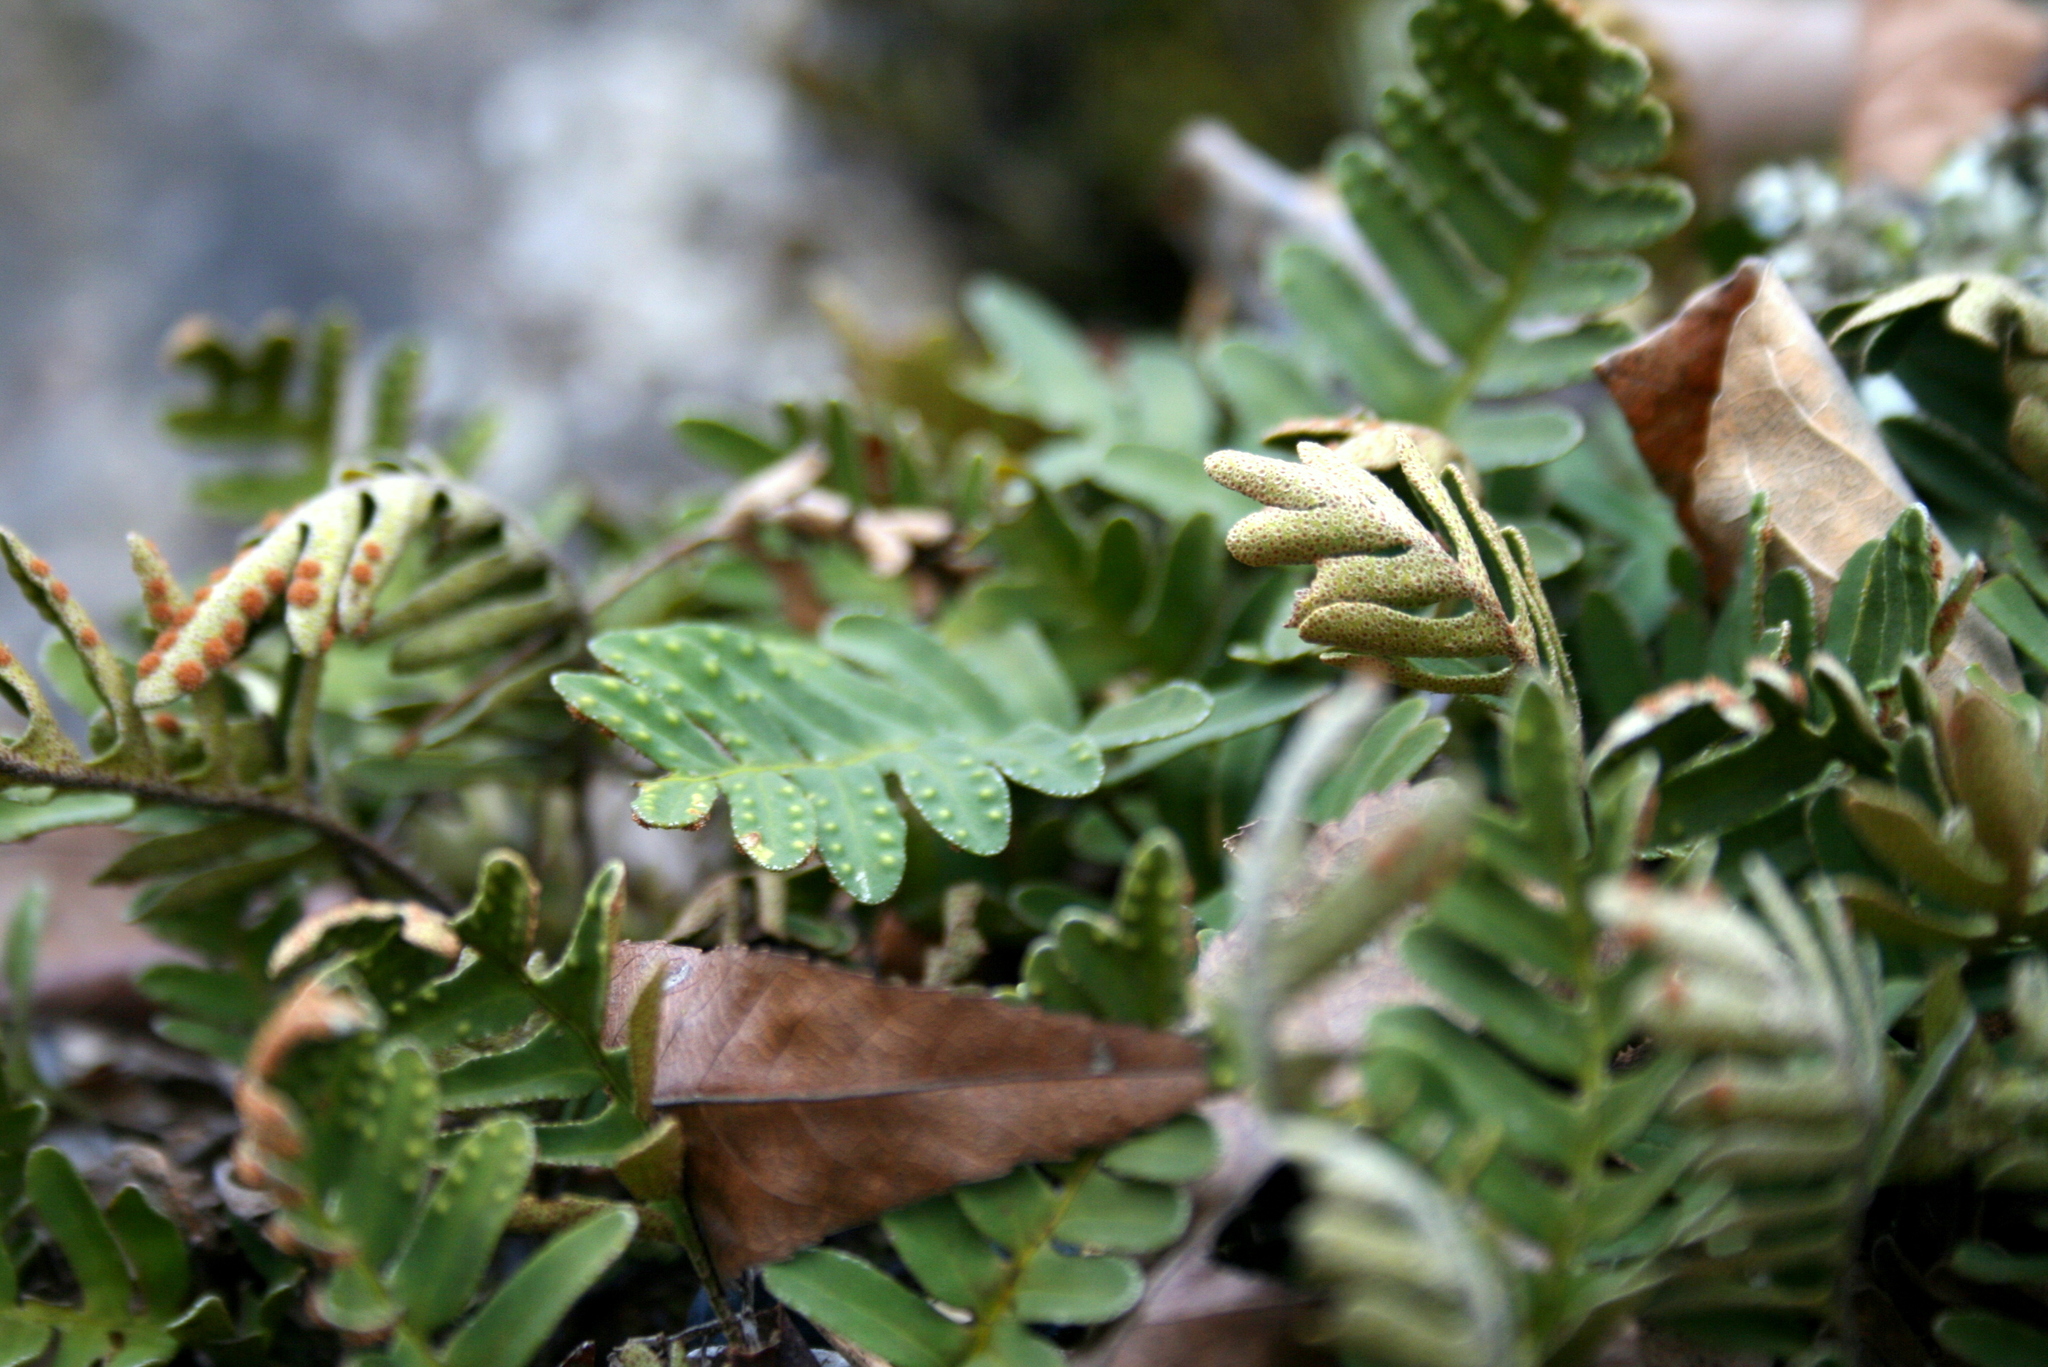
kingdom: Plantae
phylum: Tracheophyta
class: Polypodiopsida
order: Polypodiales
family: Polypodiaceae
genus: Pleopeltis
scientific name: Pleopeltis michauxiana
